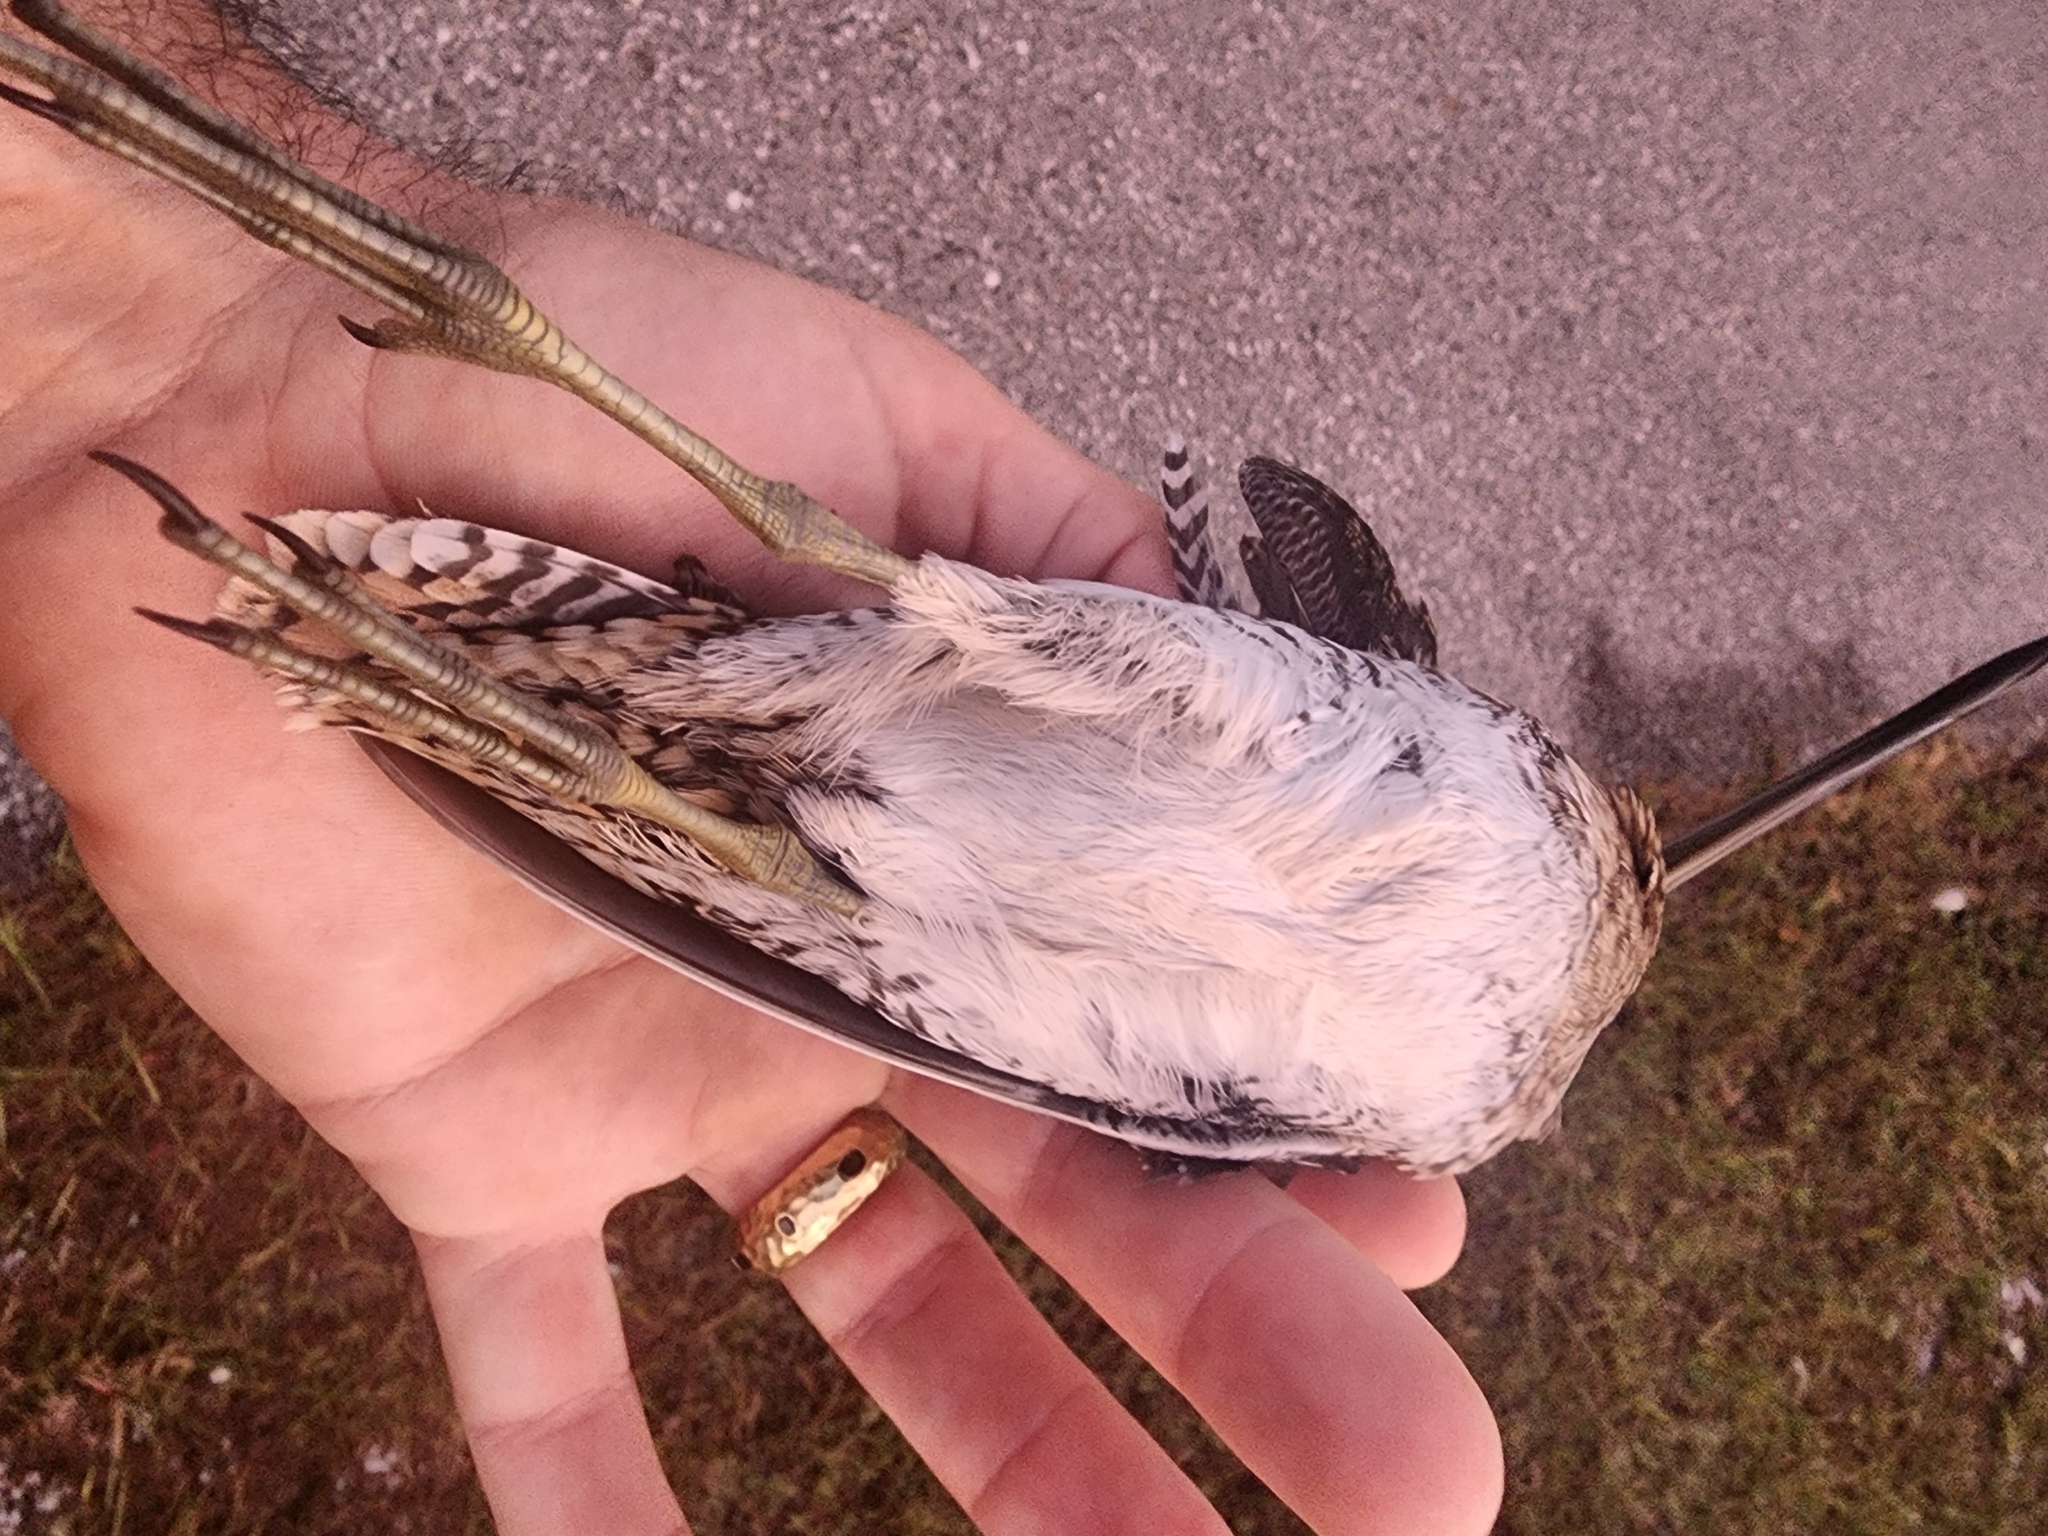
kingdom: Animalia
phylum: Chordata
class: Aves
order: Charadriiformes
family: Scolopacidae
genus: Gallinago
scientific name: Gallinago delicata
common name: Wilson's snipe
